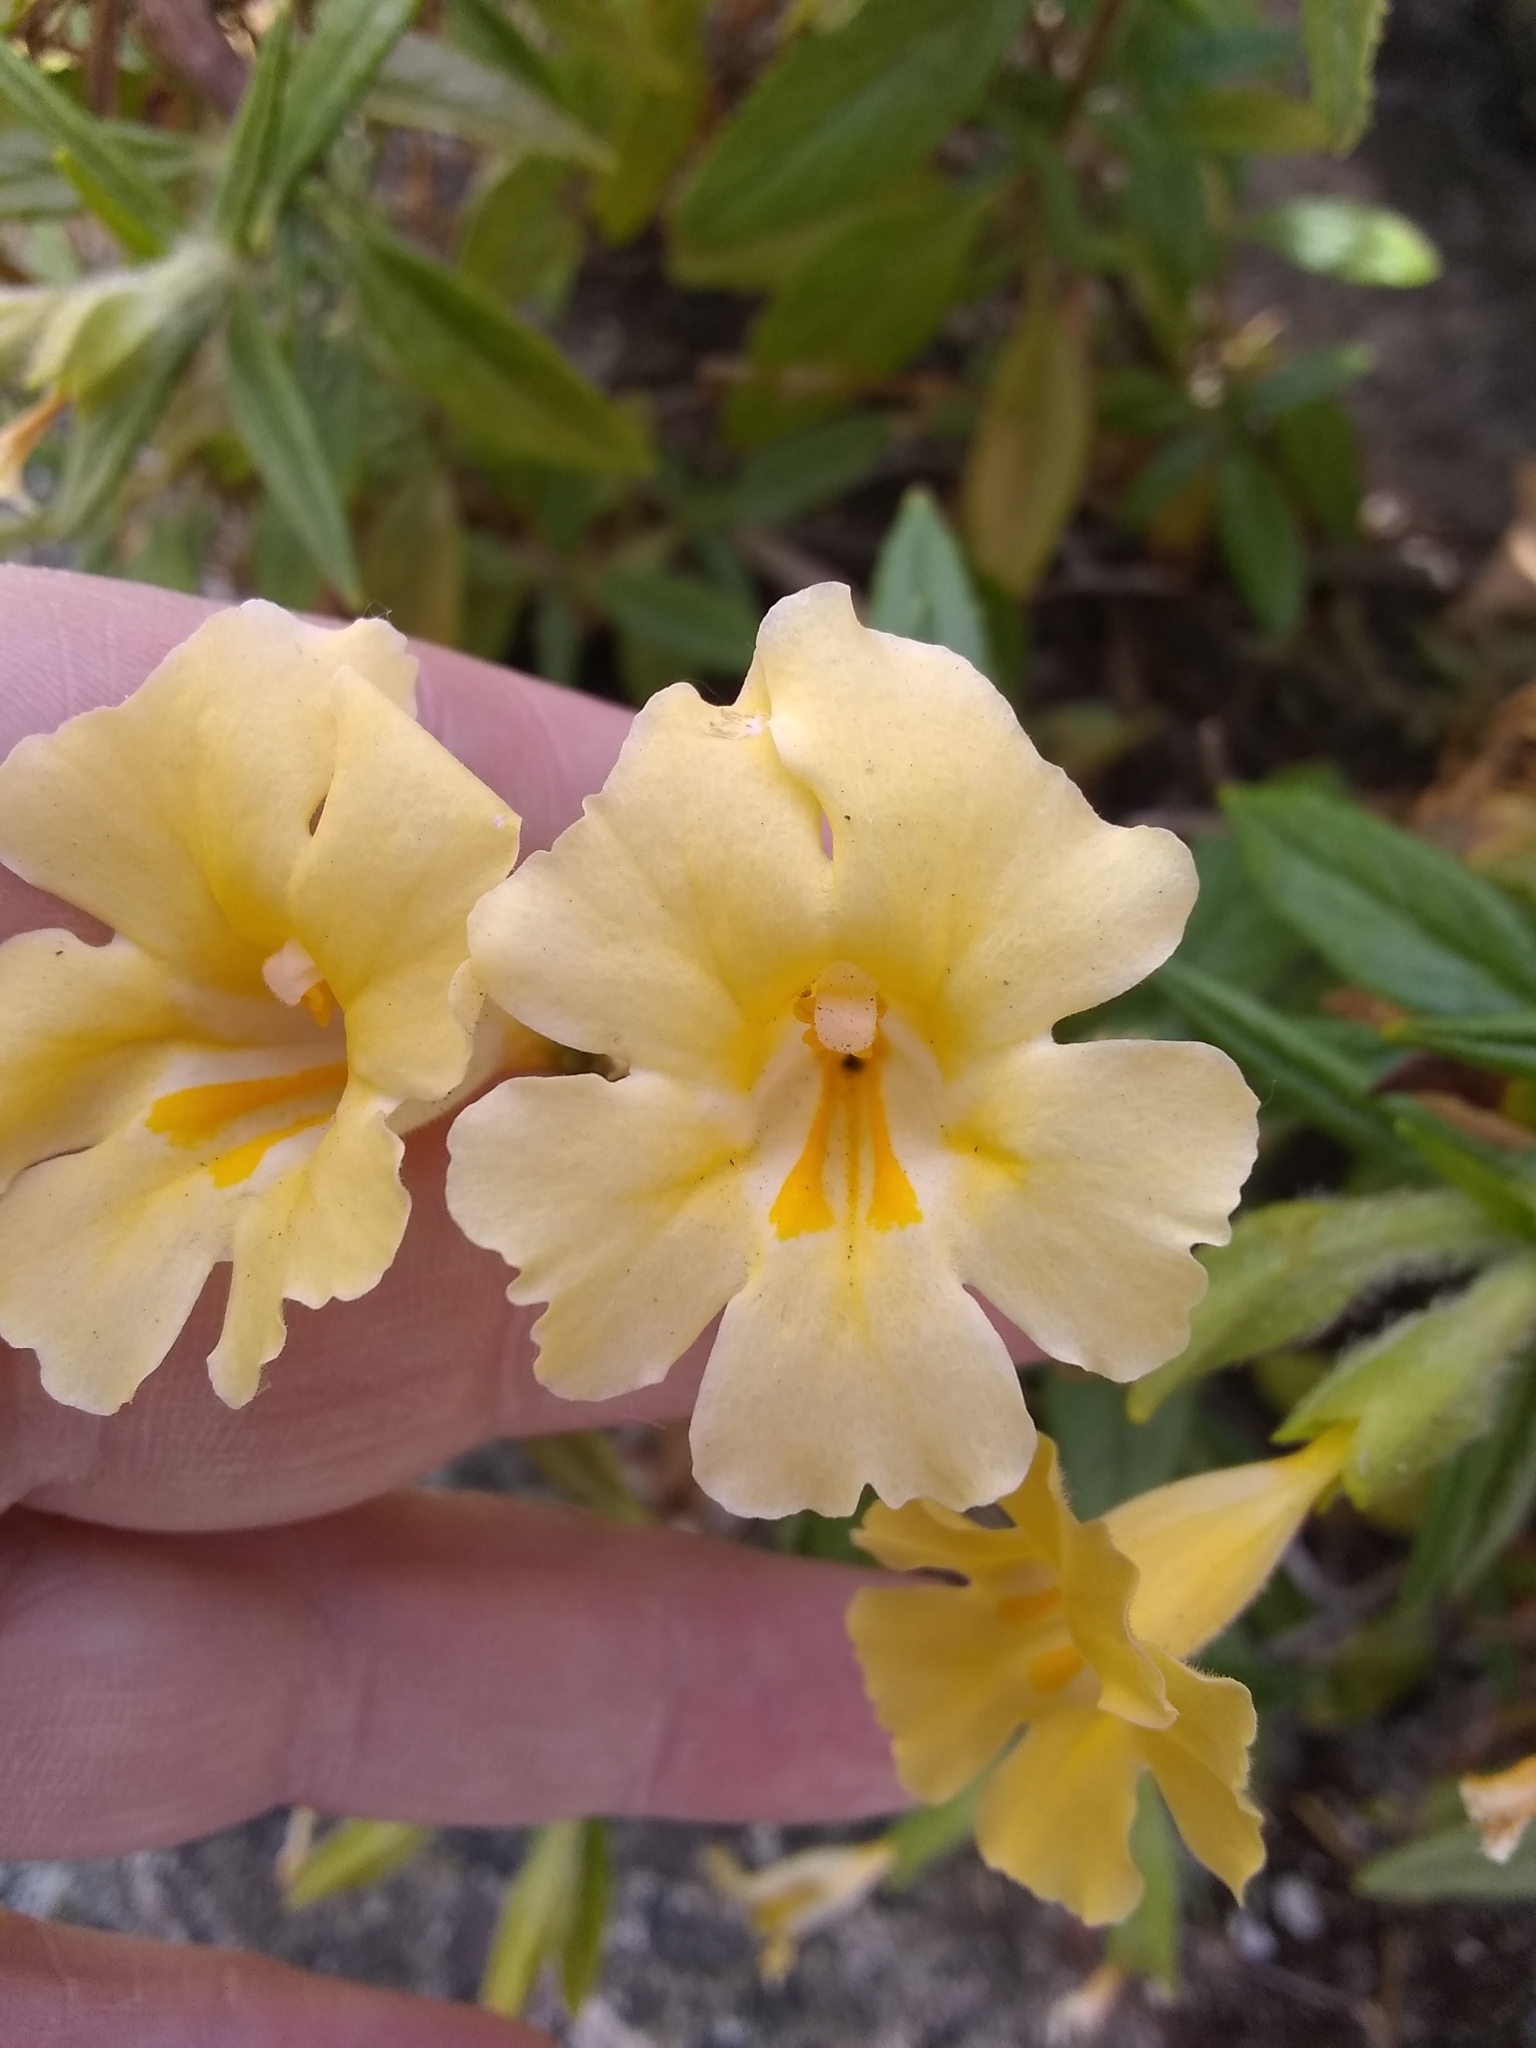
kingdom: Plantae
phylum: Tracheophyta
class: Magnoliopsida
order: Lamiales
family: Phrymaceae
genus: Diplacus
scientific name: Diplacus calycinus
